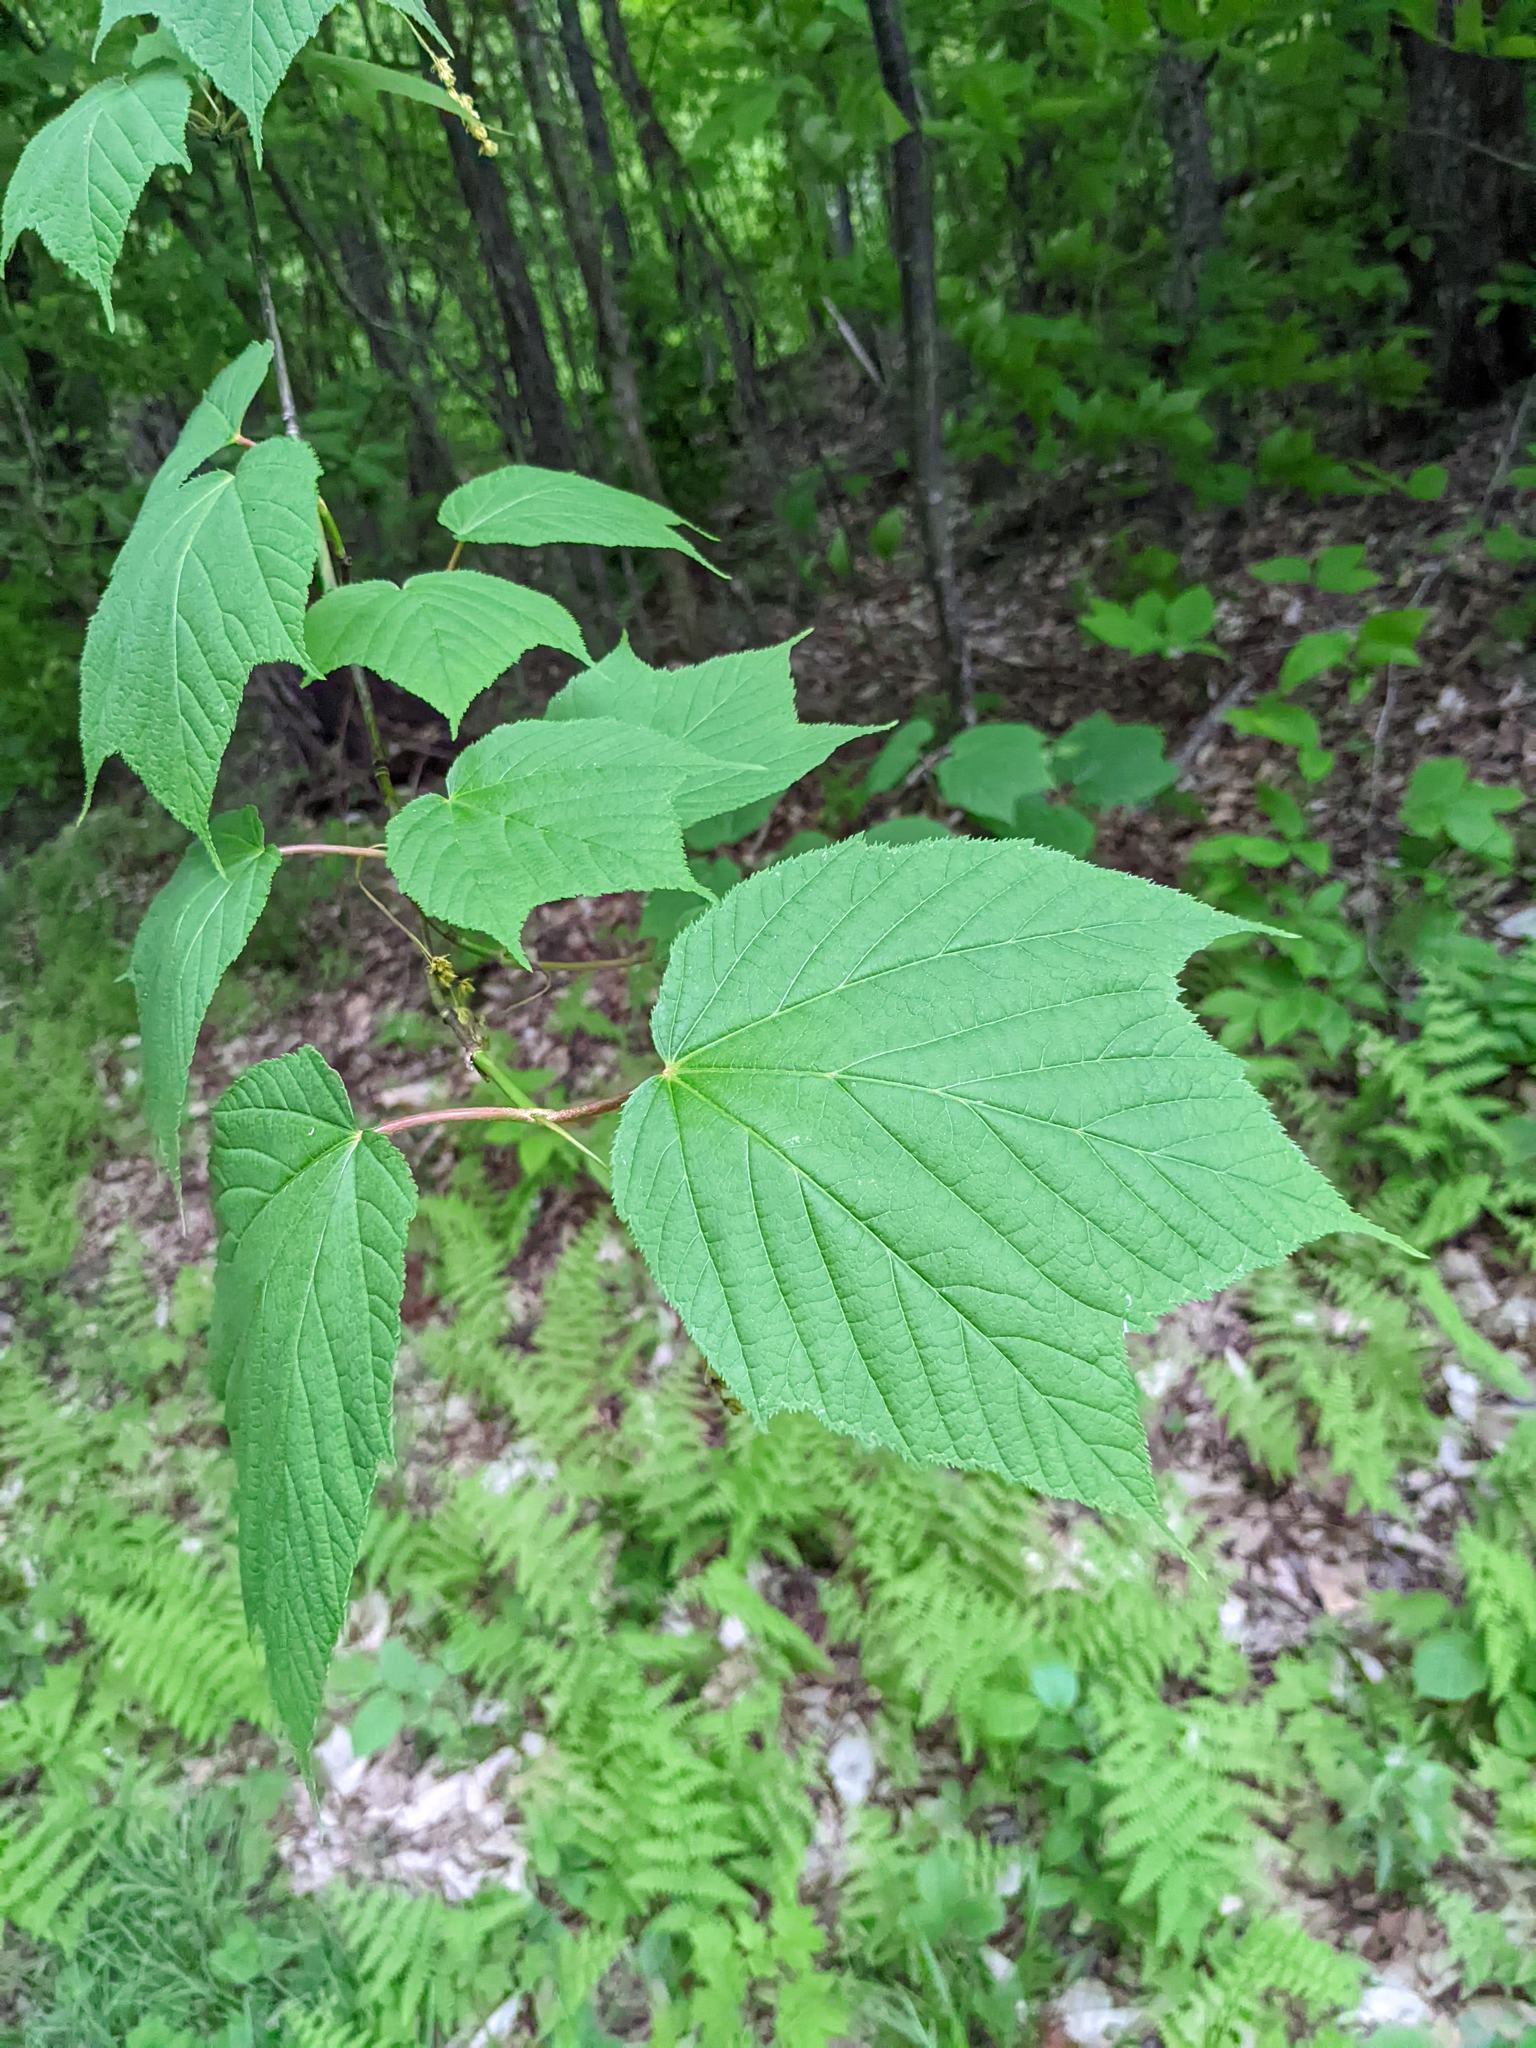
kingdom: Plantae
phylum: Tracheophyta
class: Magnoliopsida
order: Sapindales
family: Sapindaceae
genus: Acer
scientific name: Acer pensylvanicum
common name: Moosewood
